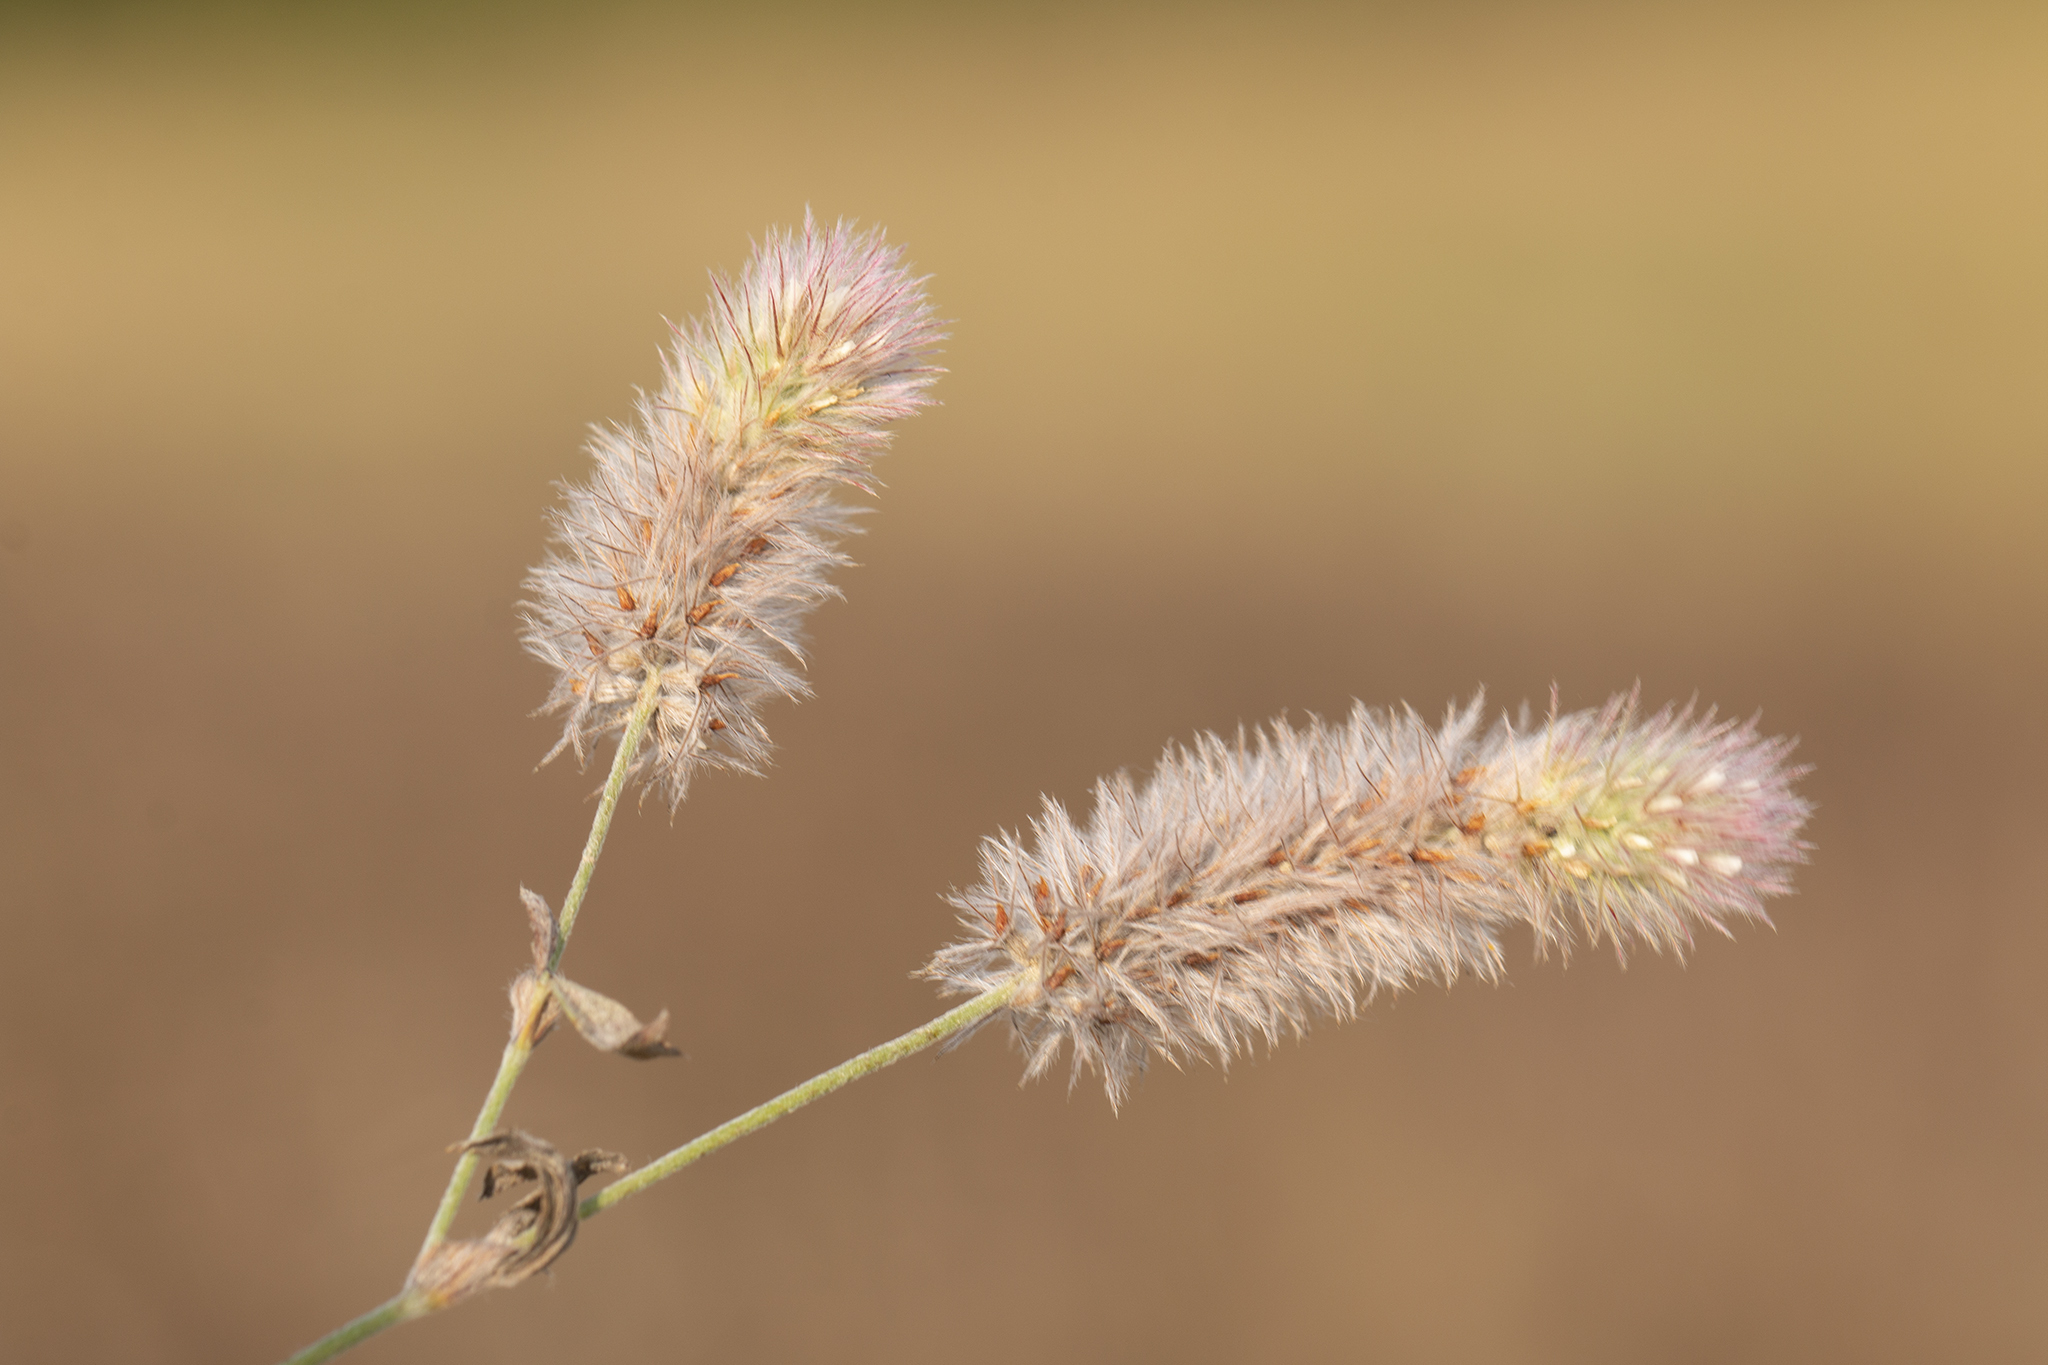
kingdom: Plantae
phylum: Tracheophyta
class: Magnoliopsida
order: Fabales
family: Fabaceae
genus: Trifolium
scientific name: Trifolium arvense
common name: Hare's-foot clover
